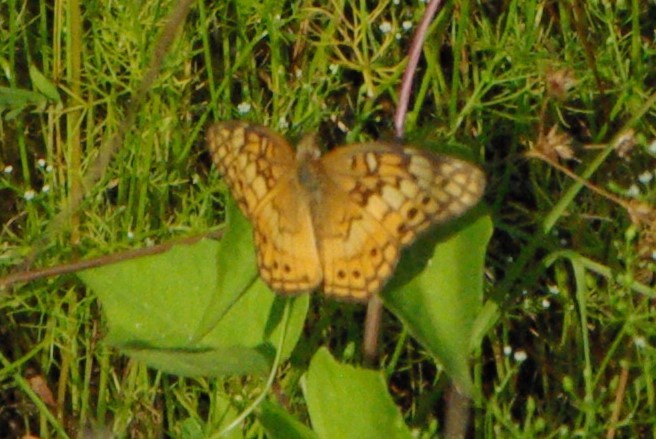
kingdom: Animalia
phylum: Arthropoda
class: Insecta
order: Lepidoptera
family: Nymphalidae
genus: Euptoieta
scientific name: Euptoieta claudia
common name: Variegated fritillary
